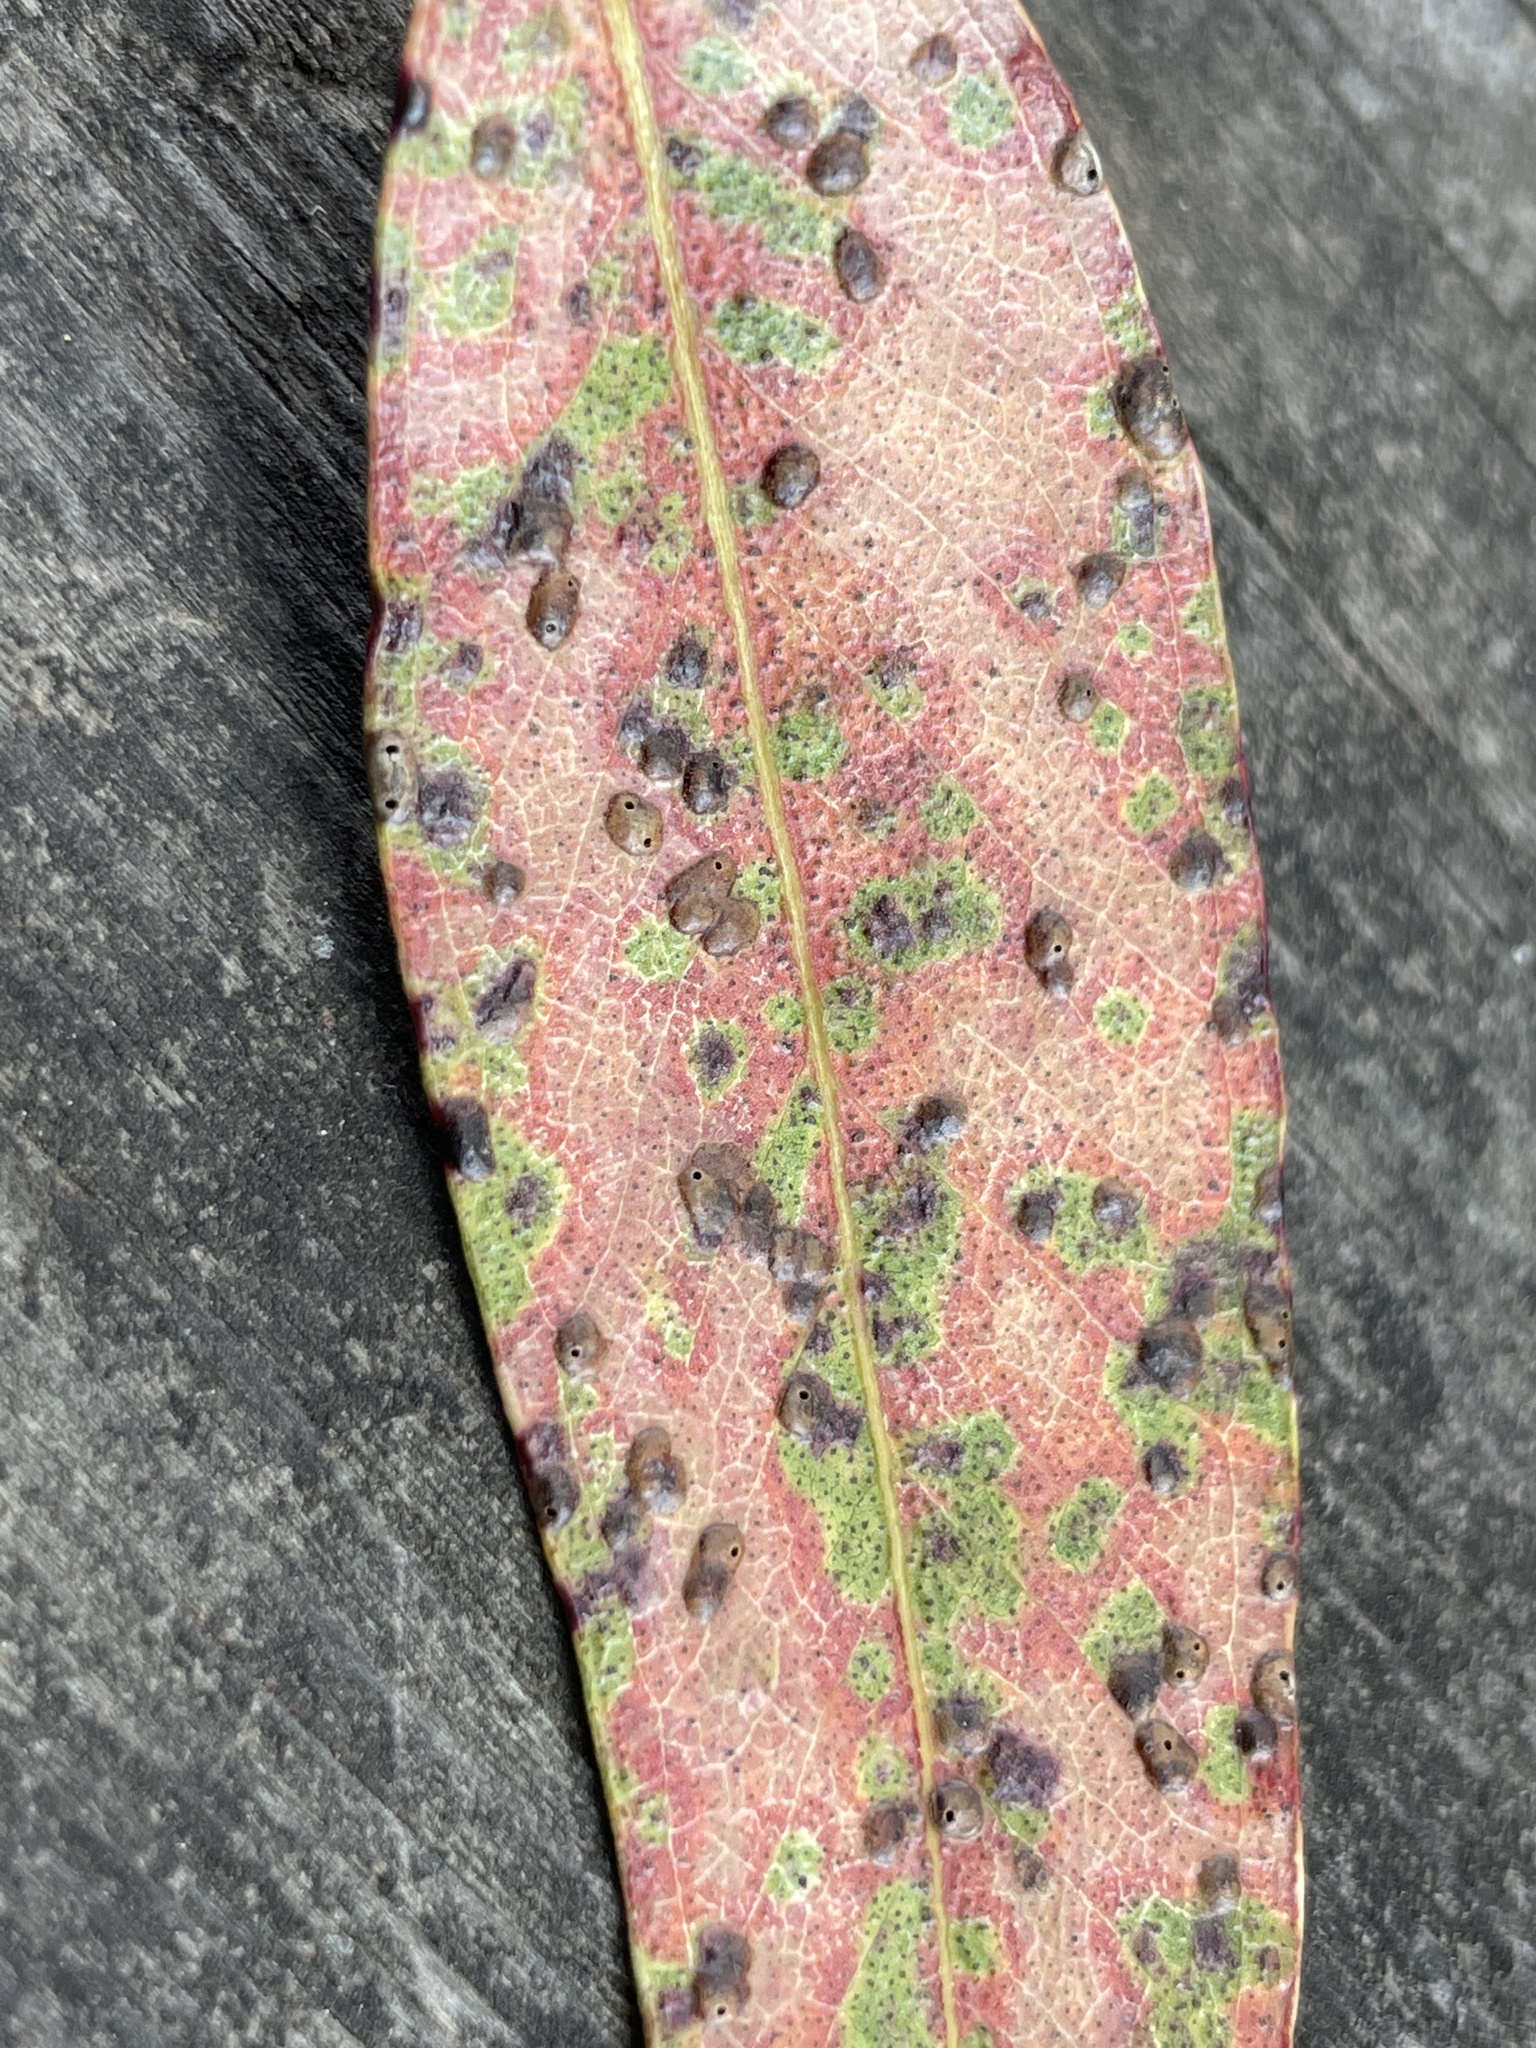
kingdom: Animalia
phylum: Arthropoda
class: Insecta
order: Hymenoptera
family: Eulophidae
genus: Ophelimus
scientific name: Ophelimus maskelli
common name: Gall wasp
